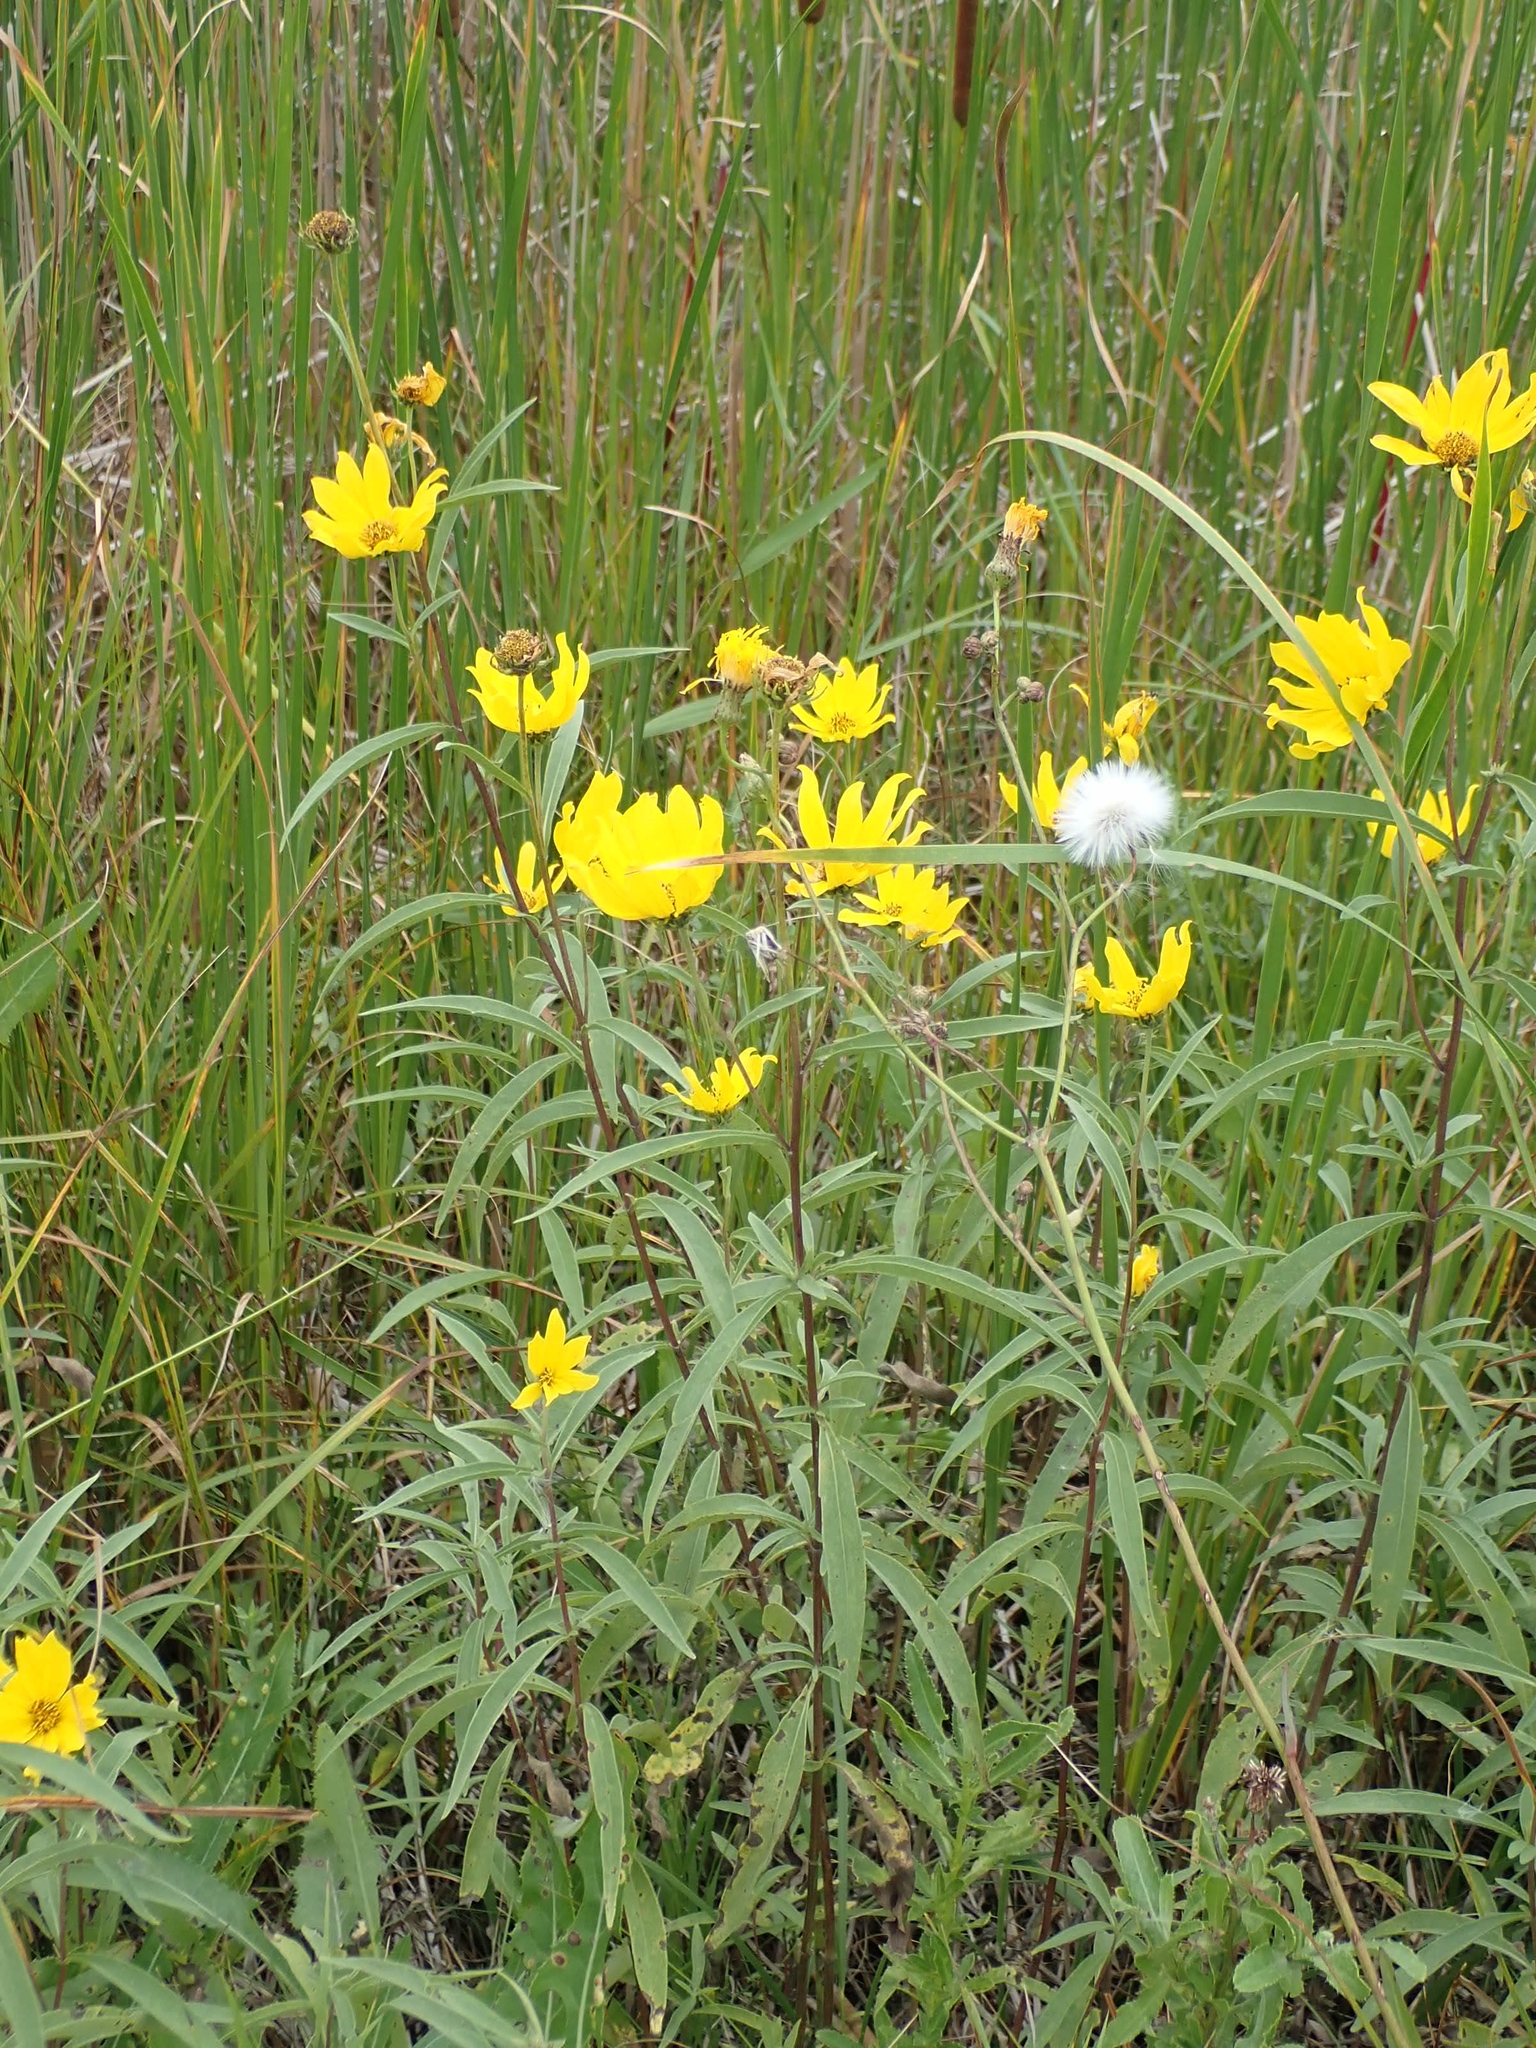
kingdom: Plantae
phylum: Tracheophyta
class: Magnoliopsida
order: Asterales
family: Asteraceae
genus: Helianthus
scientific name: Helianthus maximiliani
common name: Maximilian's sunflower
